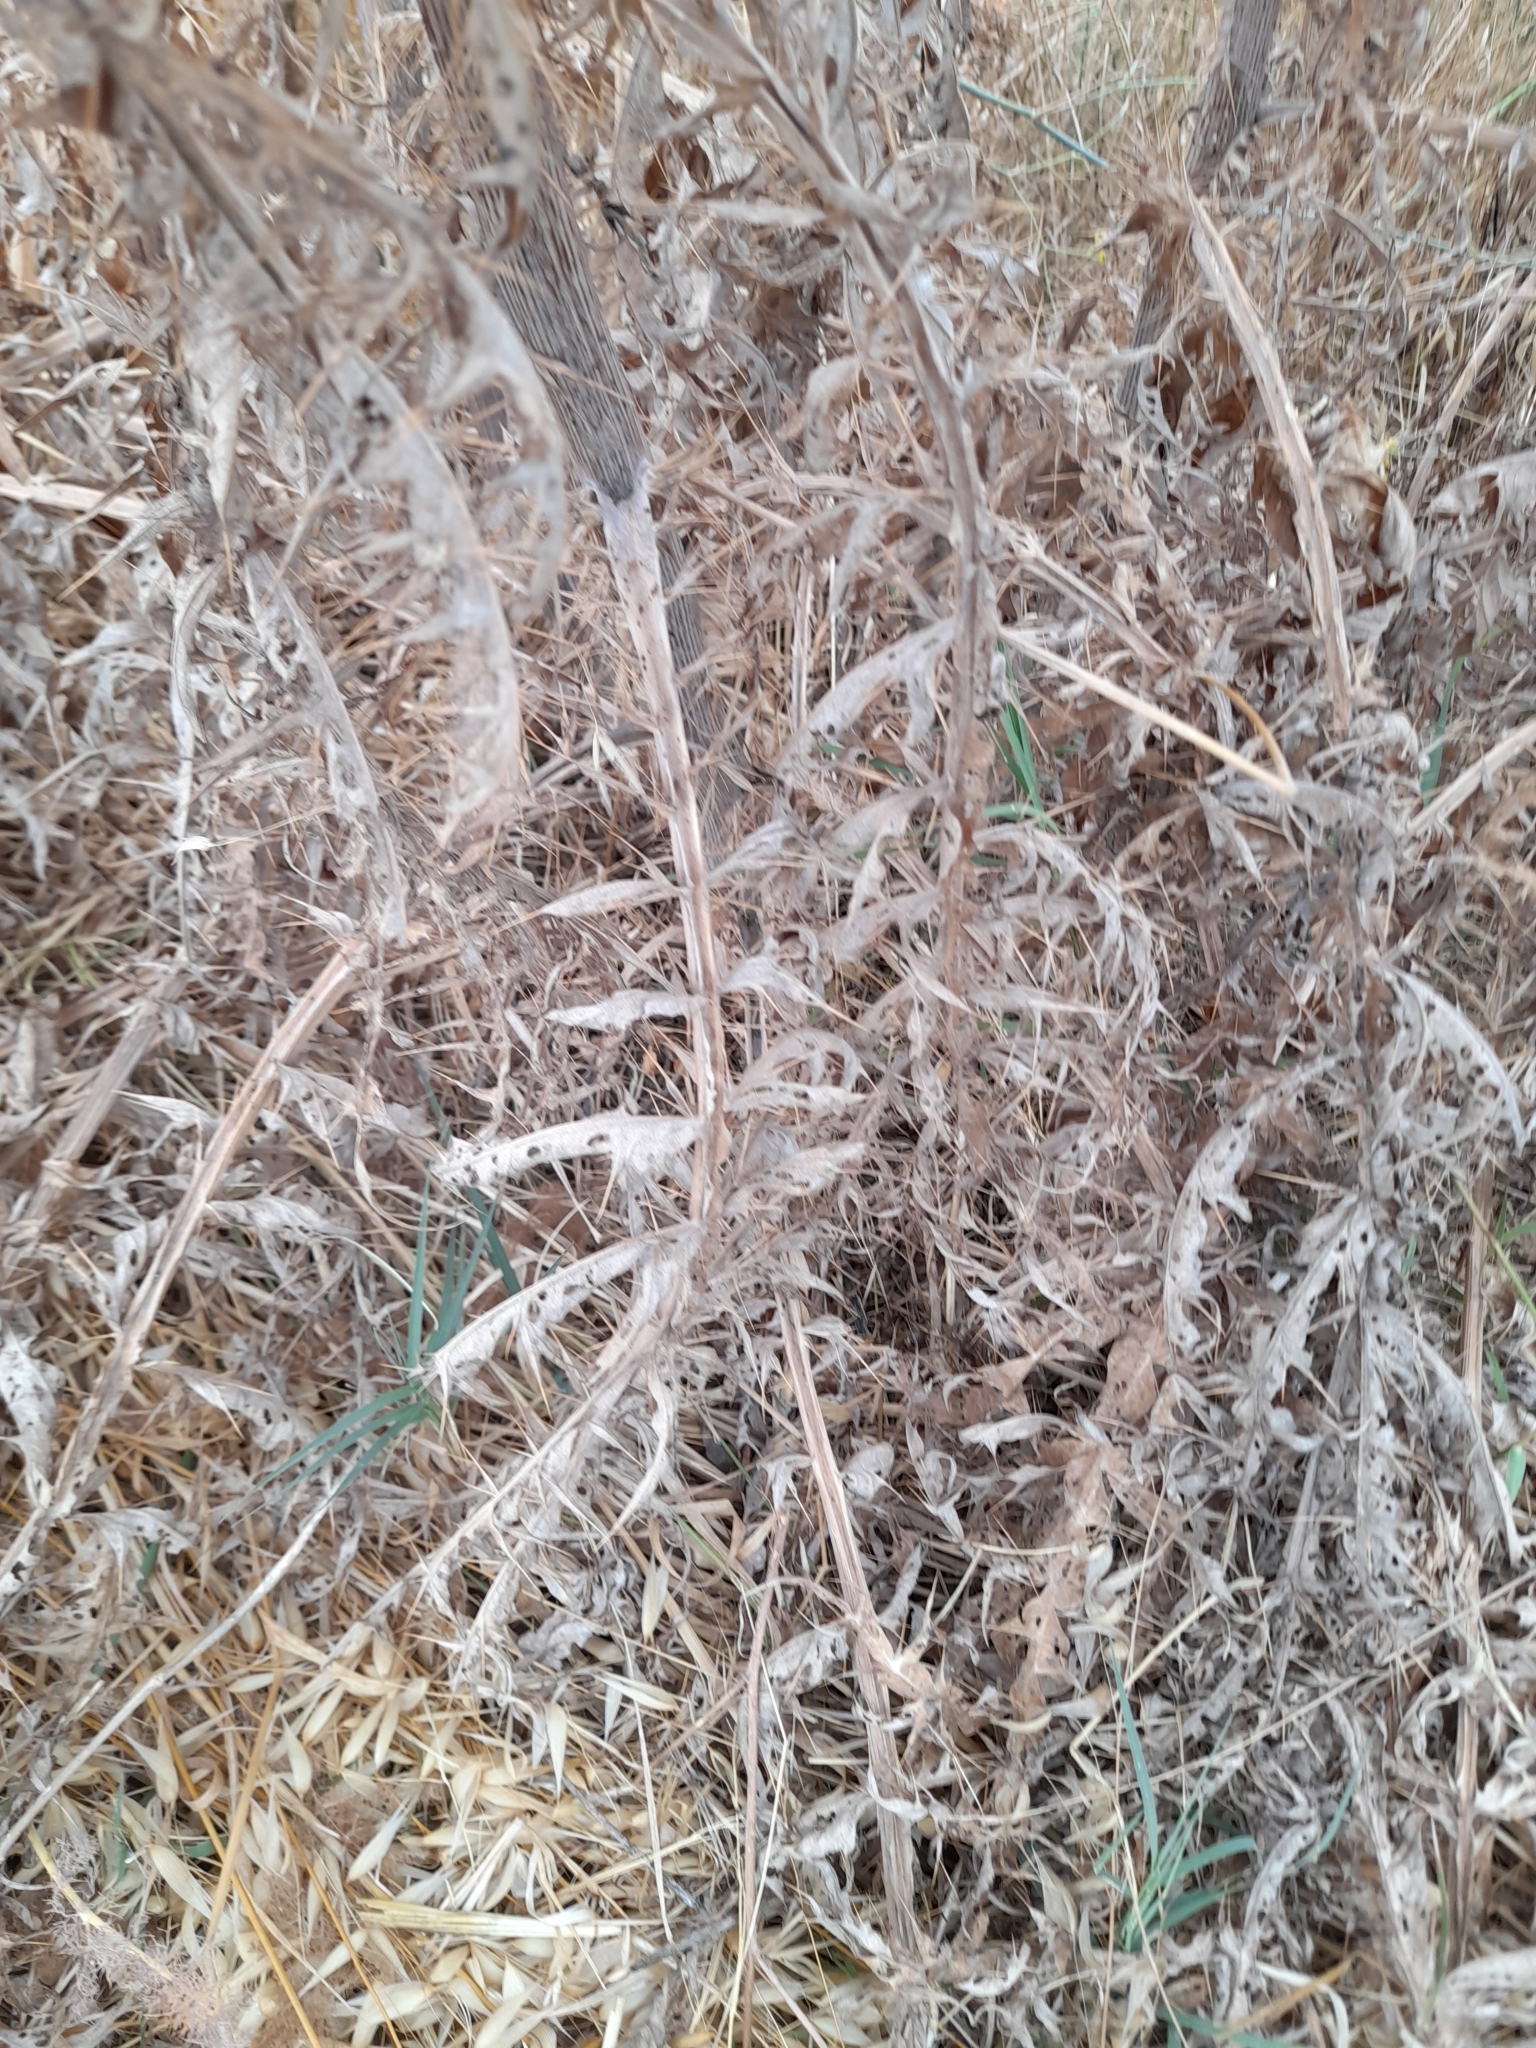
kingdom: Plantae
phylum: Tracheophyta
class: Magnoliopsida
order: Asterales
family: Asteraceae
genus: Cynara
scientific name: Cynara cardunculus
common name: Globe artichoke
